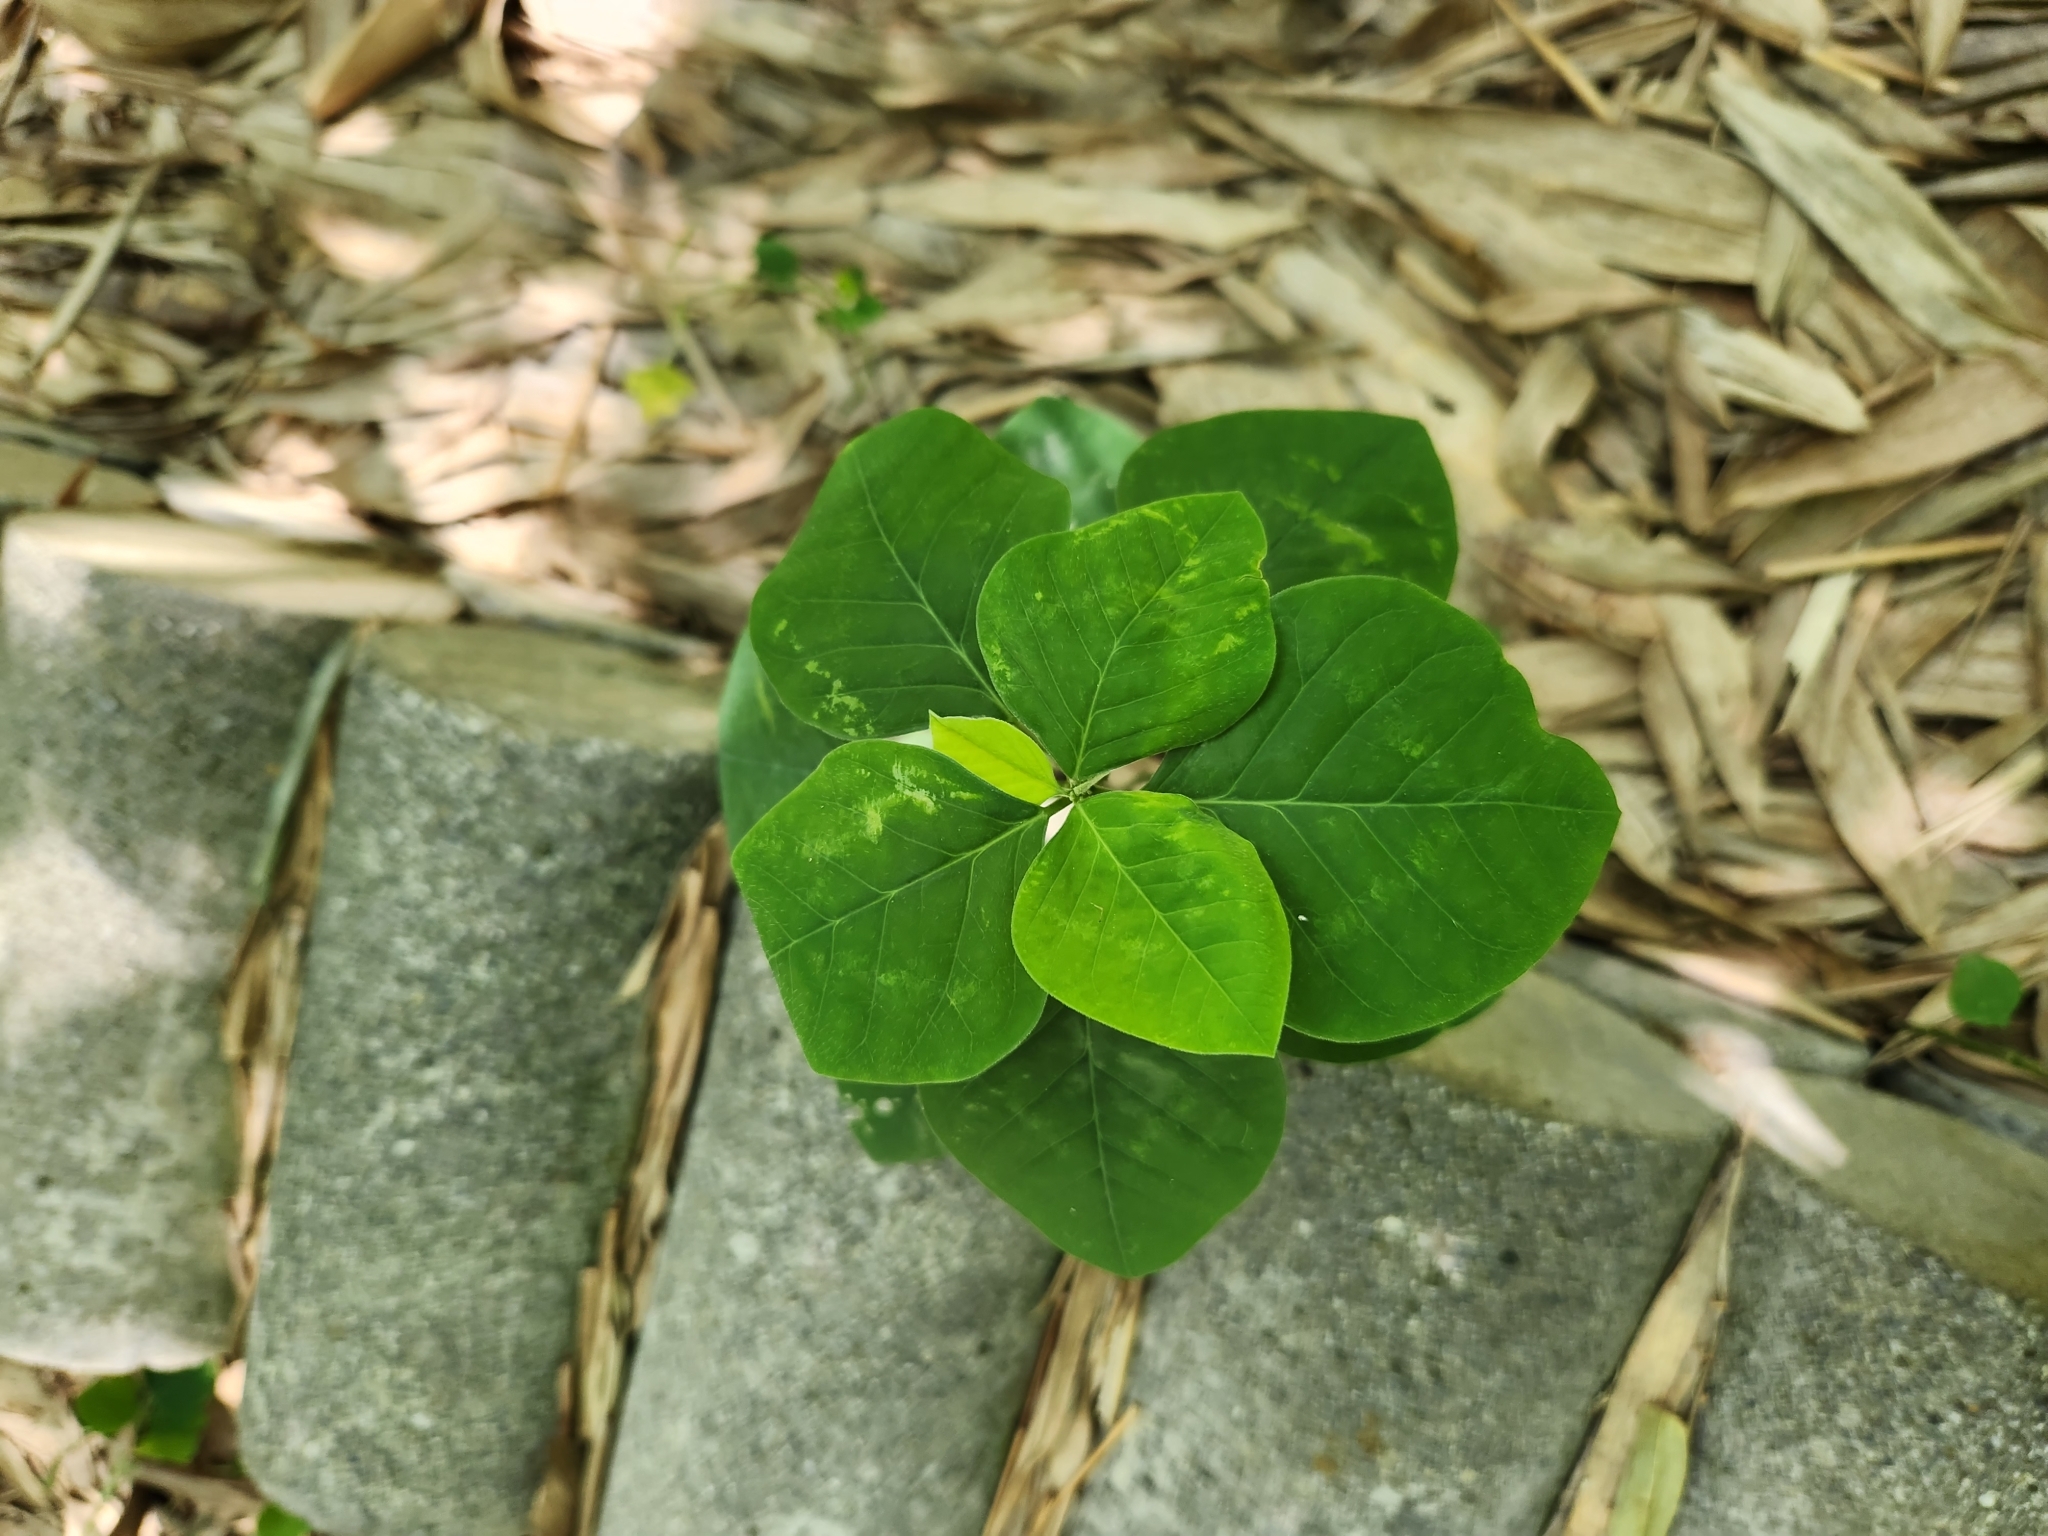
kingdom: Plantae
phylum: Tracheophyta
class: Magnoliopsida
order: Malpighiales
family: Euphorbiaceae
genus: Euphorbia
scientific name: Euphorbia graminea
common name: Grassleaf spurge
